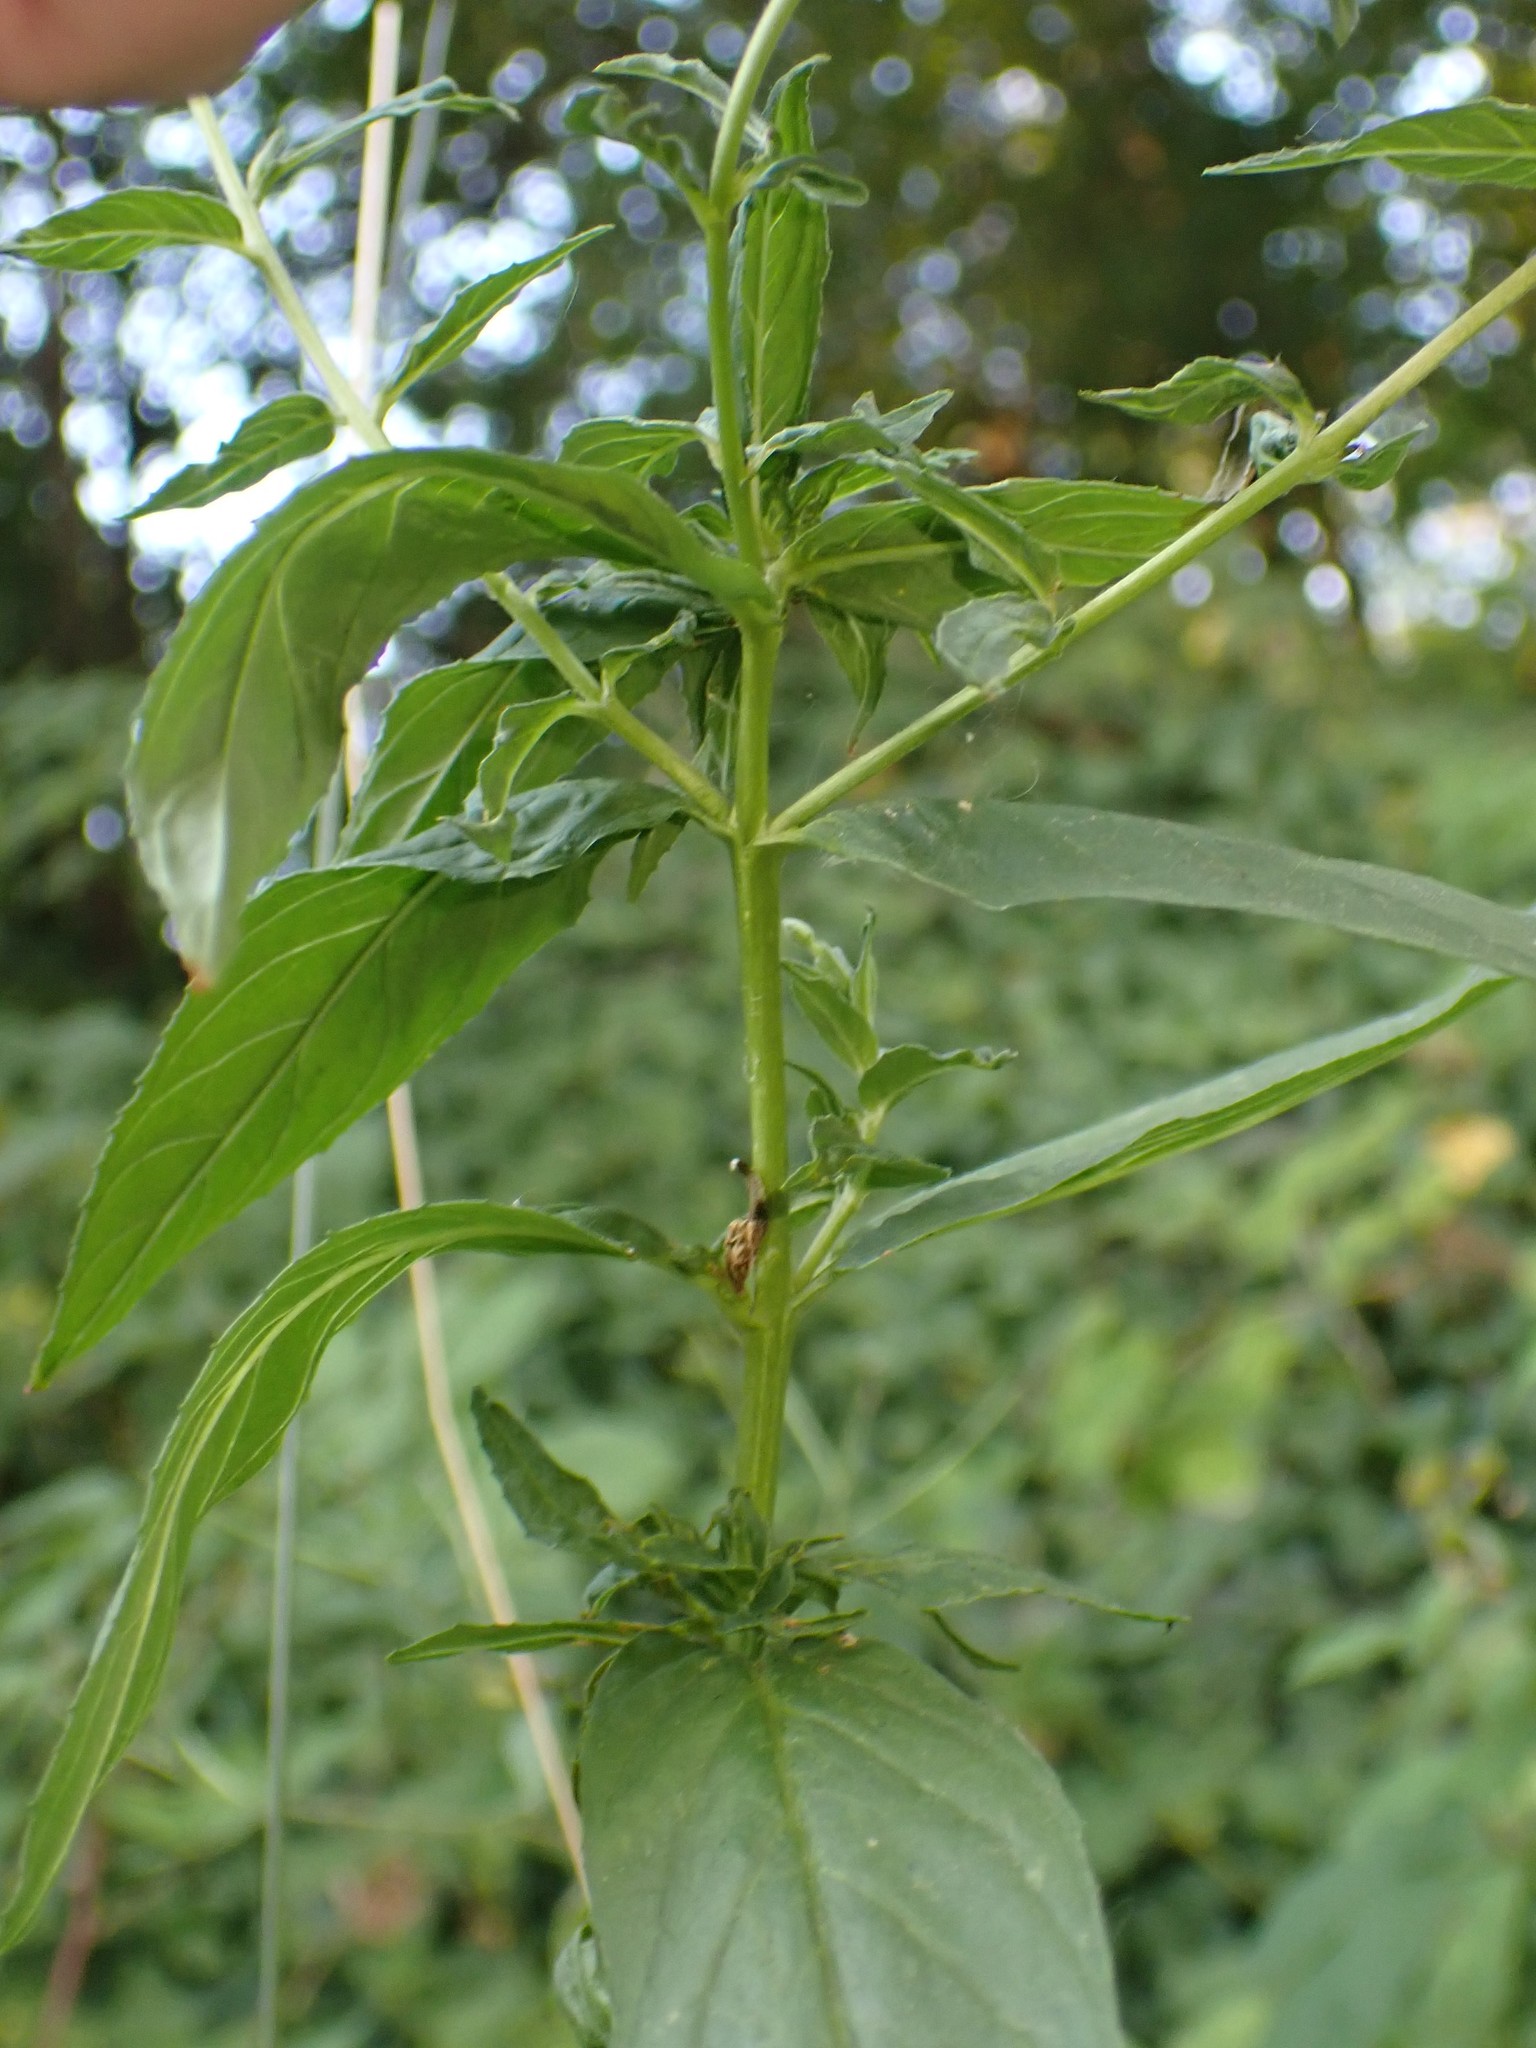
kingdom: Plantae
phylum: Tracheophyta
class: Magnoliopsida
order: Myrtales
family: Onagraceae
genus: Epilobium
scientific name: Epilobium ciliatum
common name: American willowherb
